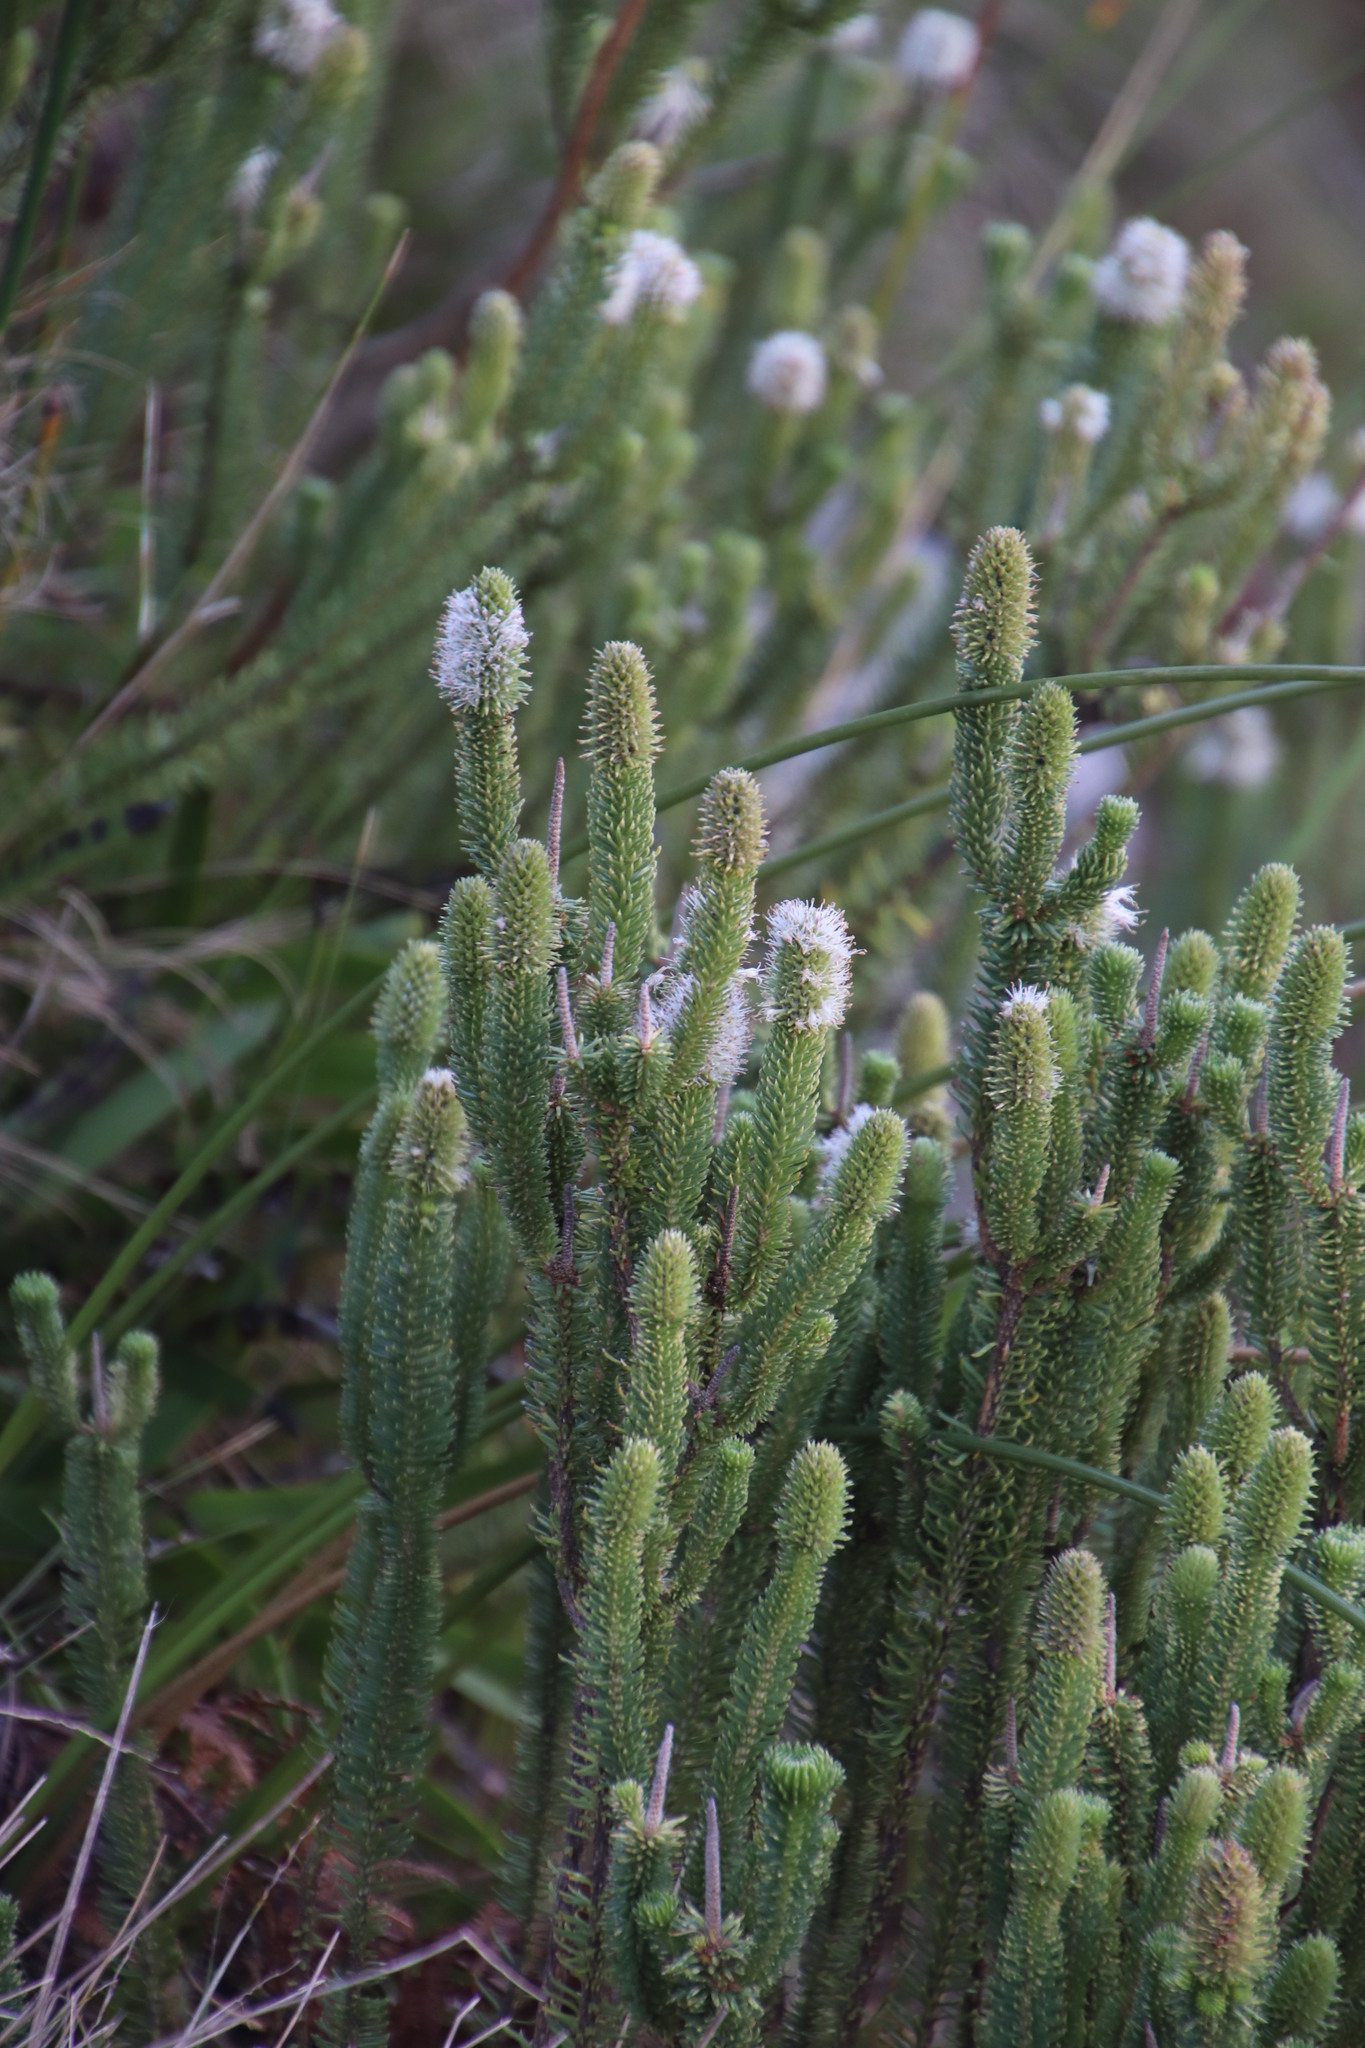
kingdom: Plantae
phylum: Tracheophyta
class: Magnoliopsida
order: Lamiales
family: Stilbaceae
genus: Stilbe
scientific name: Stilbe vestita
